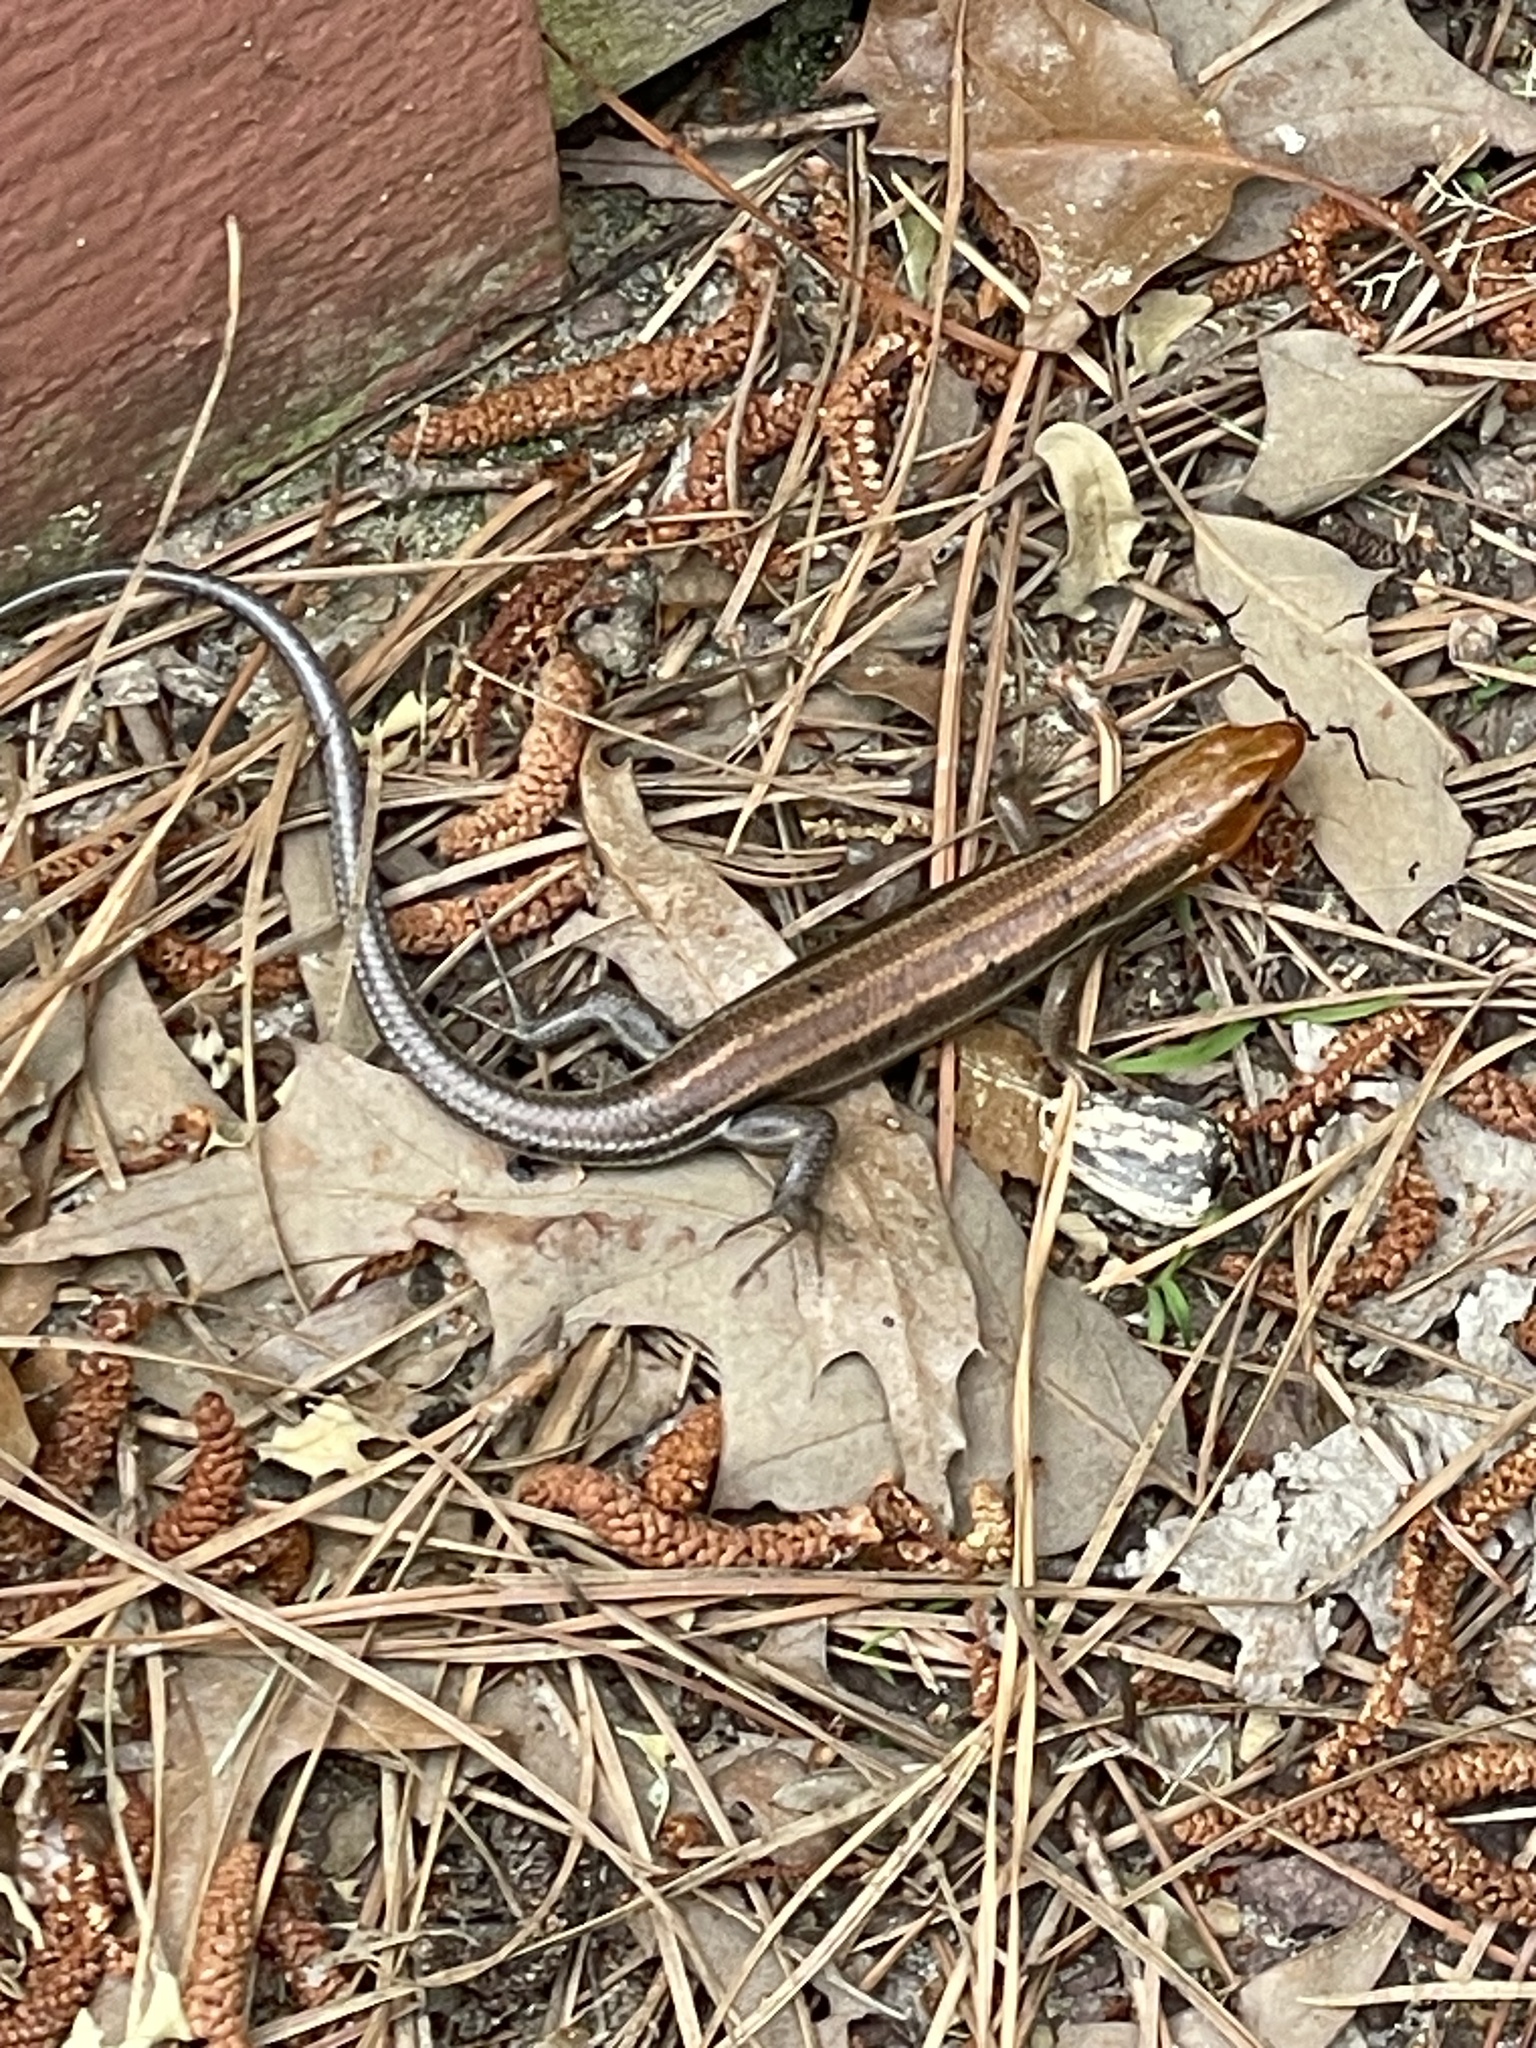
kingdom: Animalia
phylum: Chordata
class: Squamata
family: Scincidae
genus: Plestiodon
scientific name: Plestiodon fasciatus
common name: Five-lined skink
